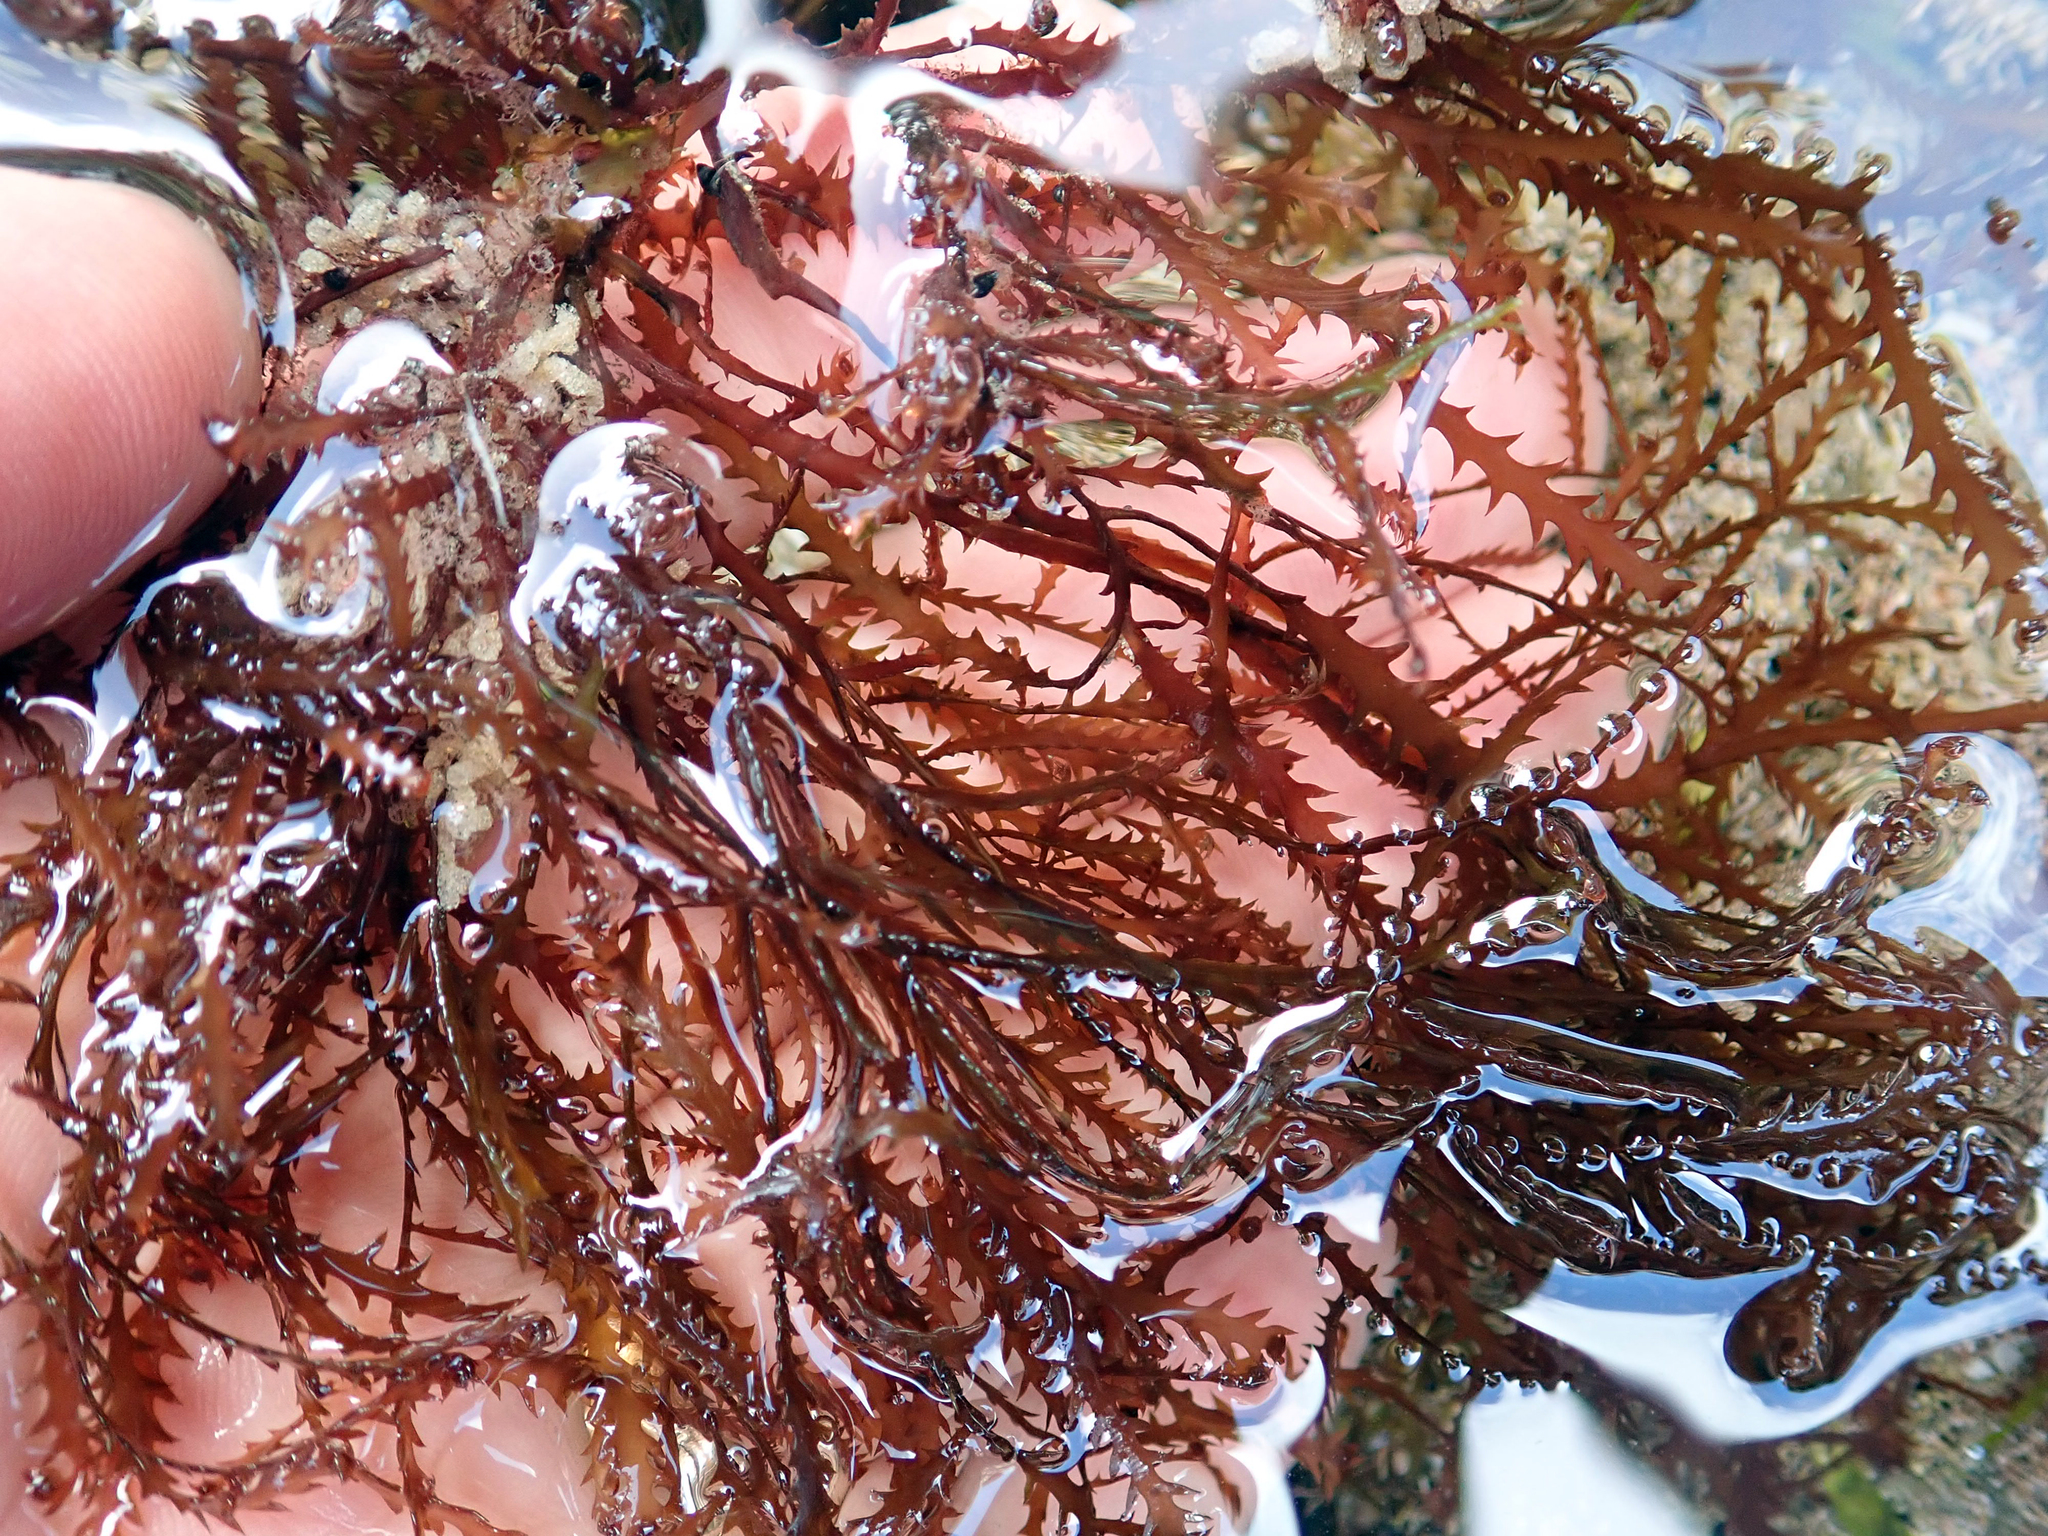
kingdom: Plantae
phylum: Rhodophyta
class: Florideophyceae
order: Ceramiales
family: Rhodomelaceae
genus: Vidalia
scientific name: Vidalia colensoi
